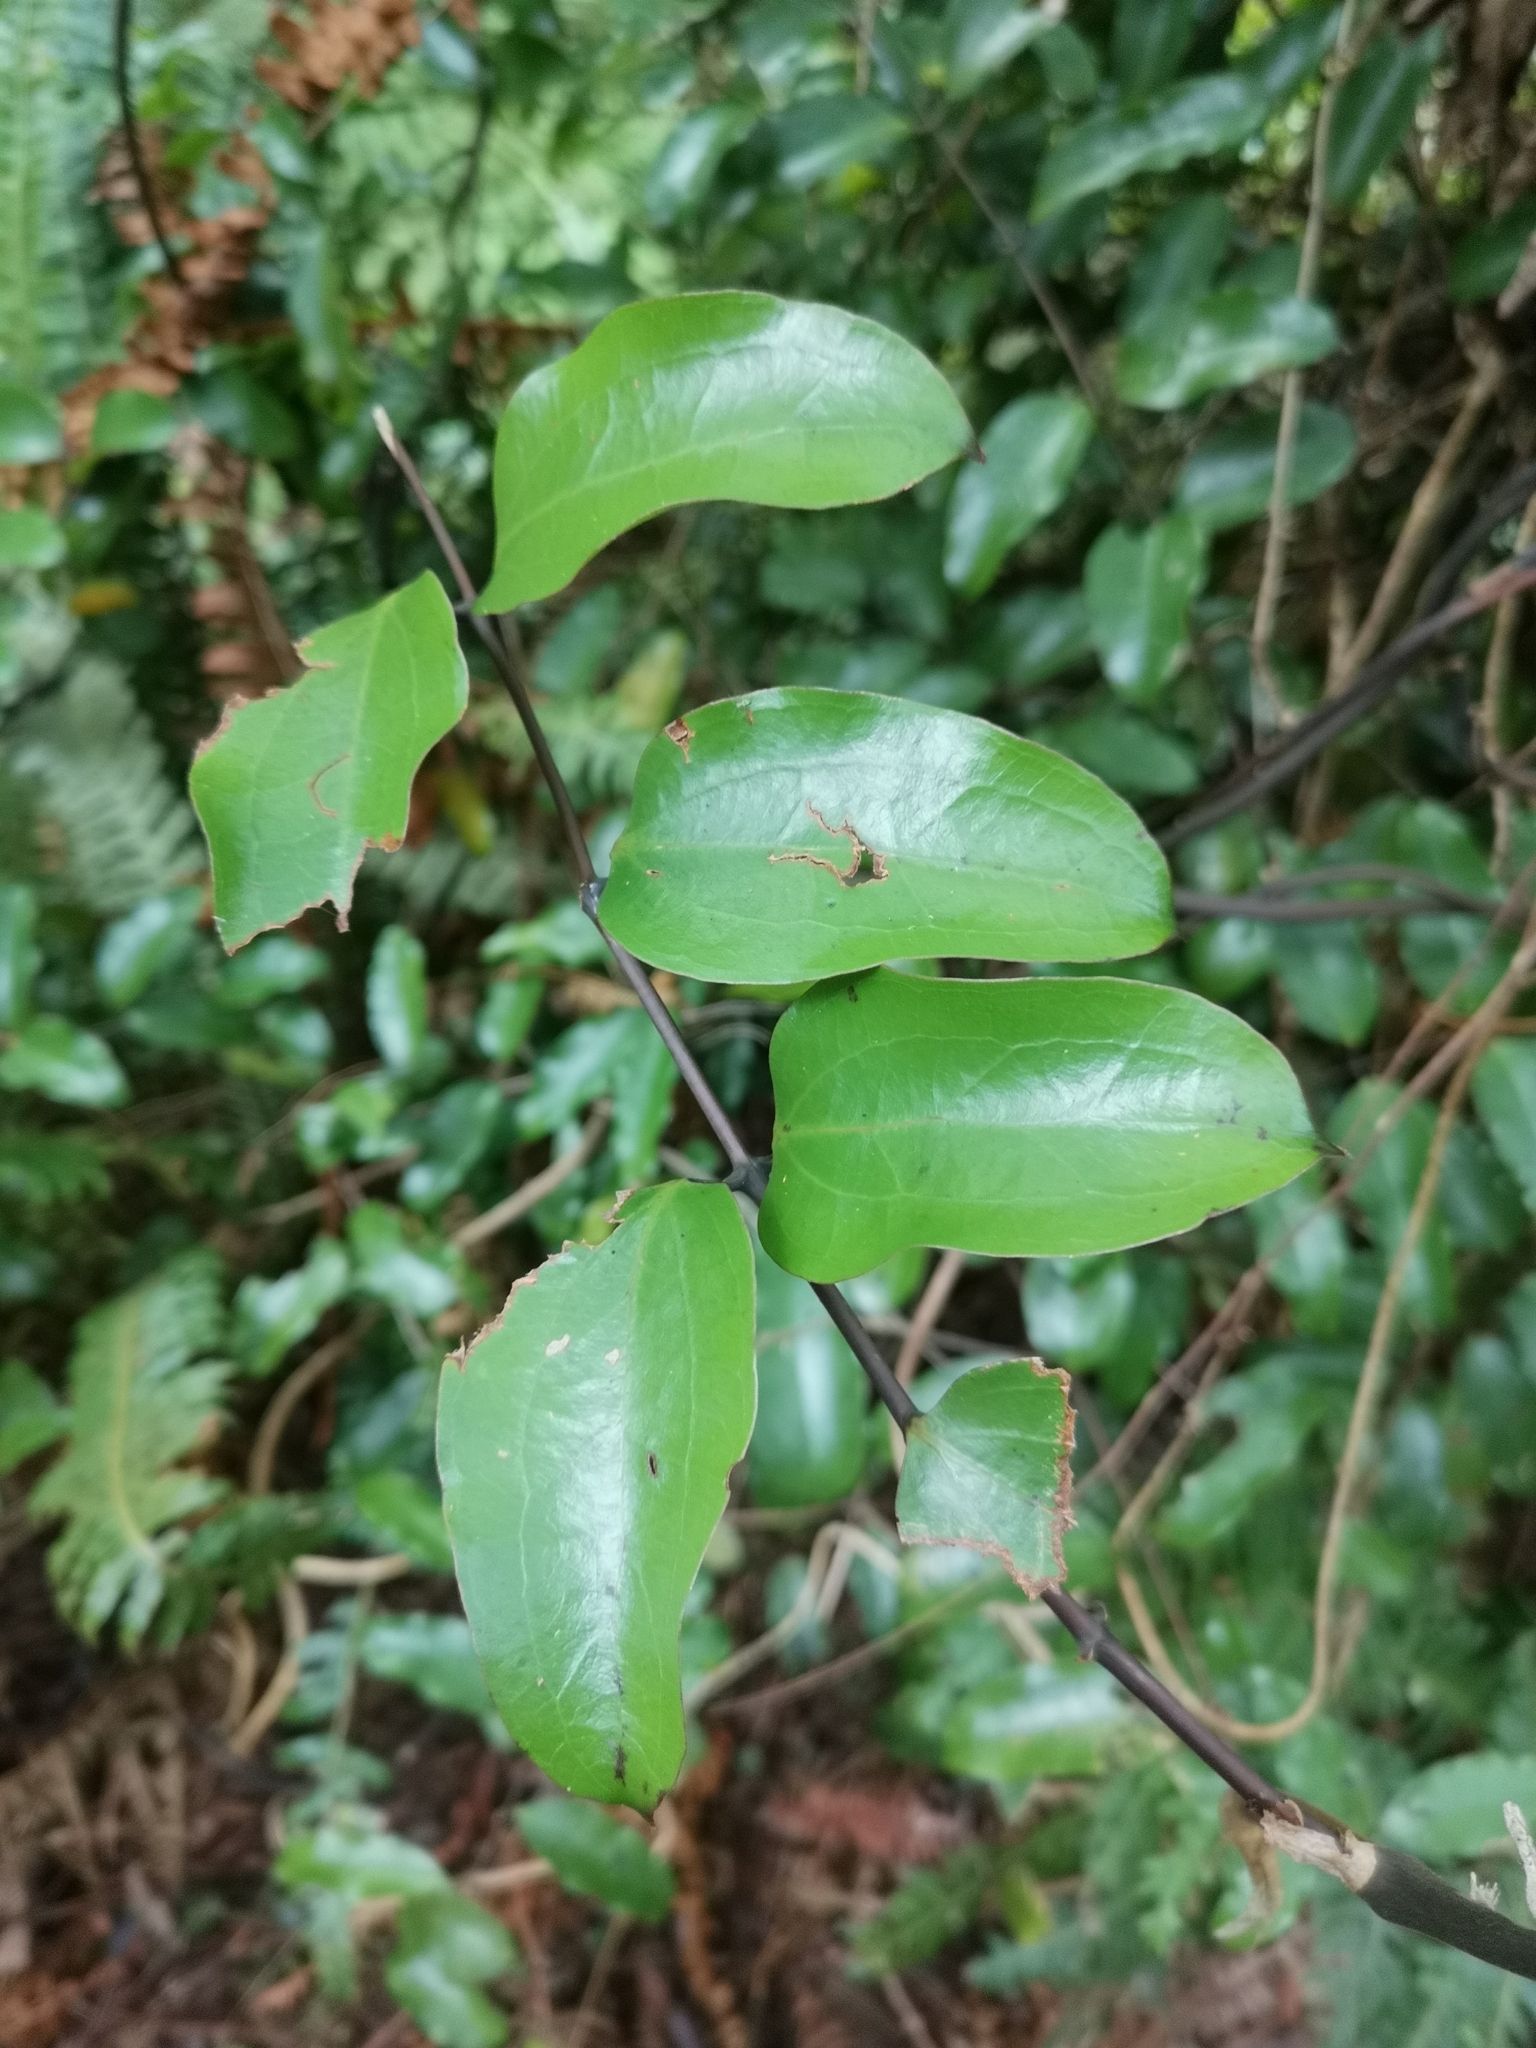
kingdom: Plantae
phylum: Tracheophyta
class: Liliopsida
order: Liliales
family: Ripogonaceae
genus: Ripogonum
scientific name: Ripogonum scandens
